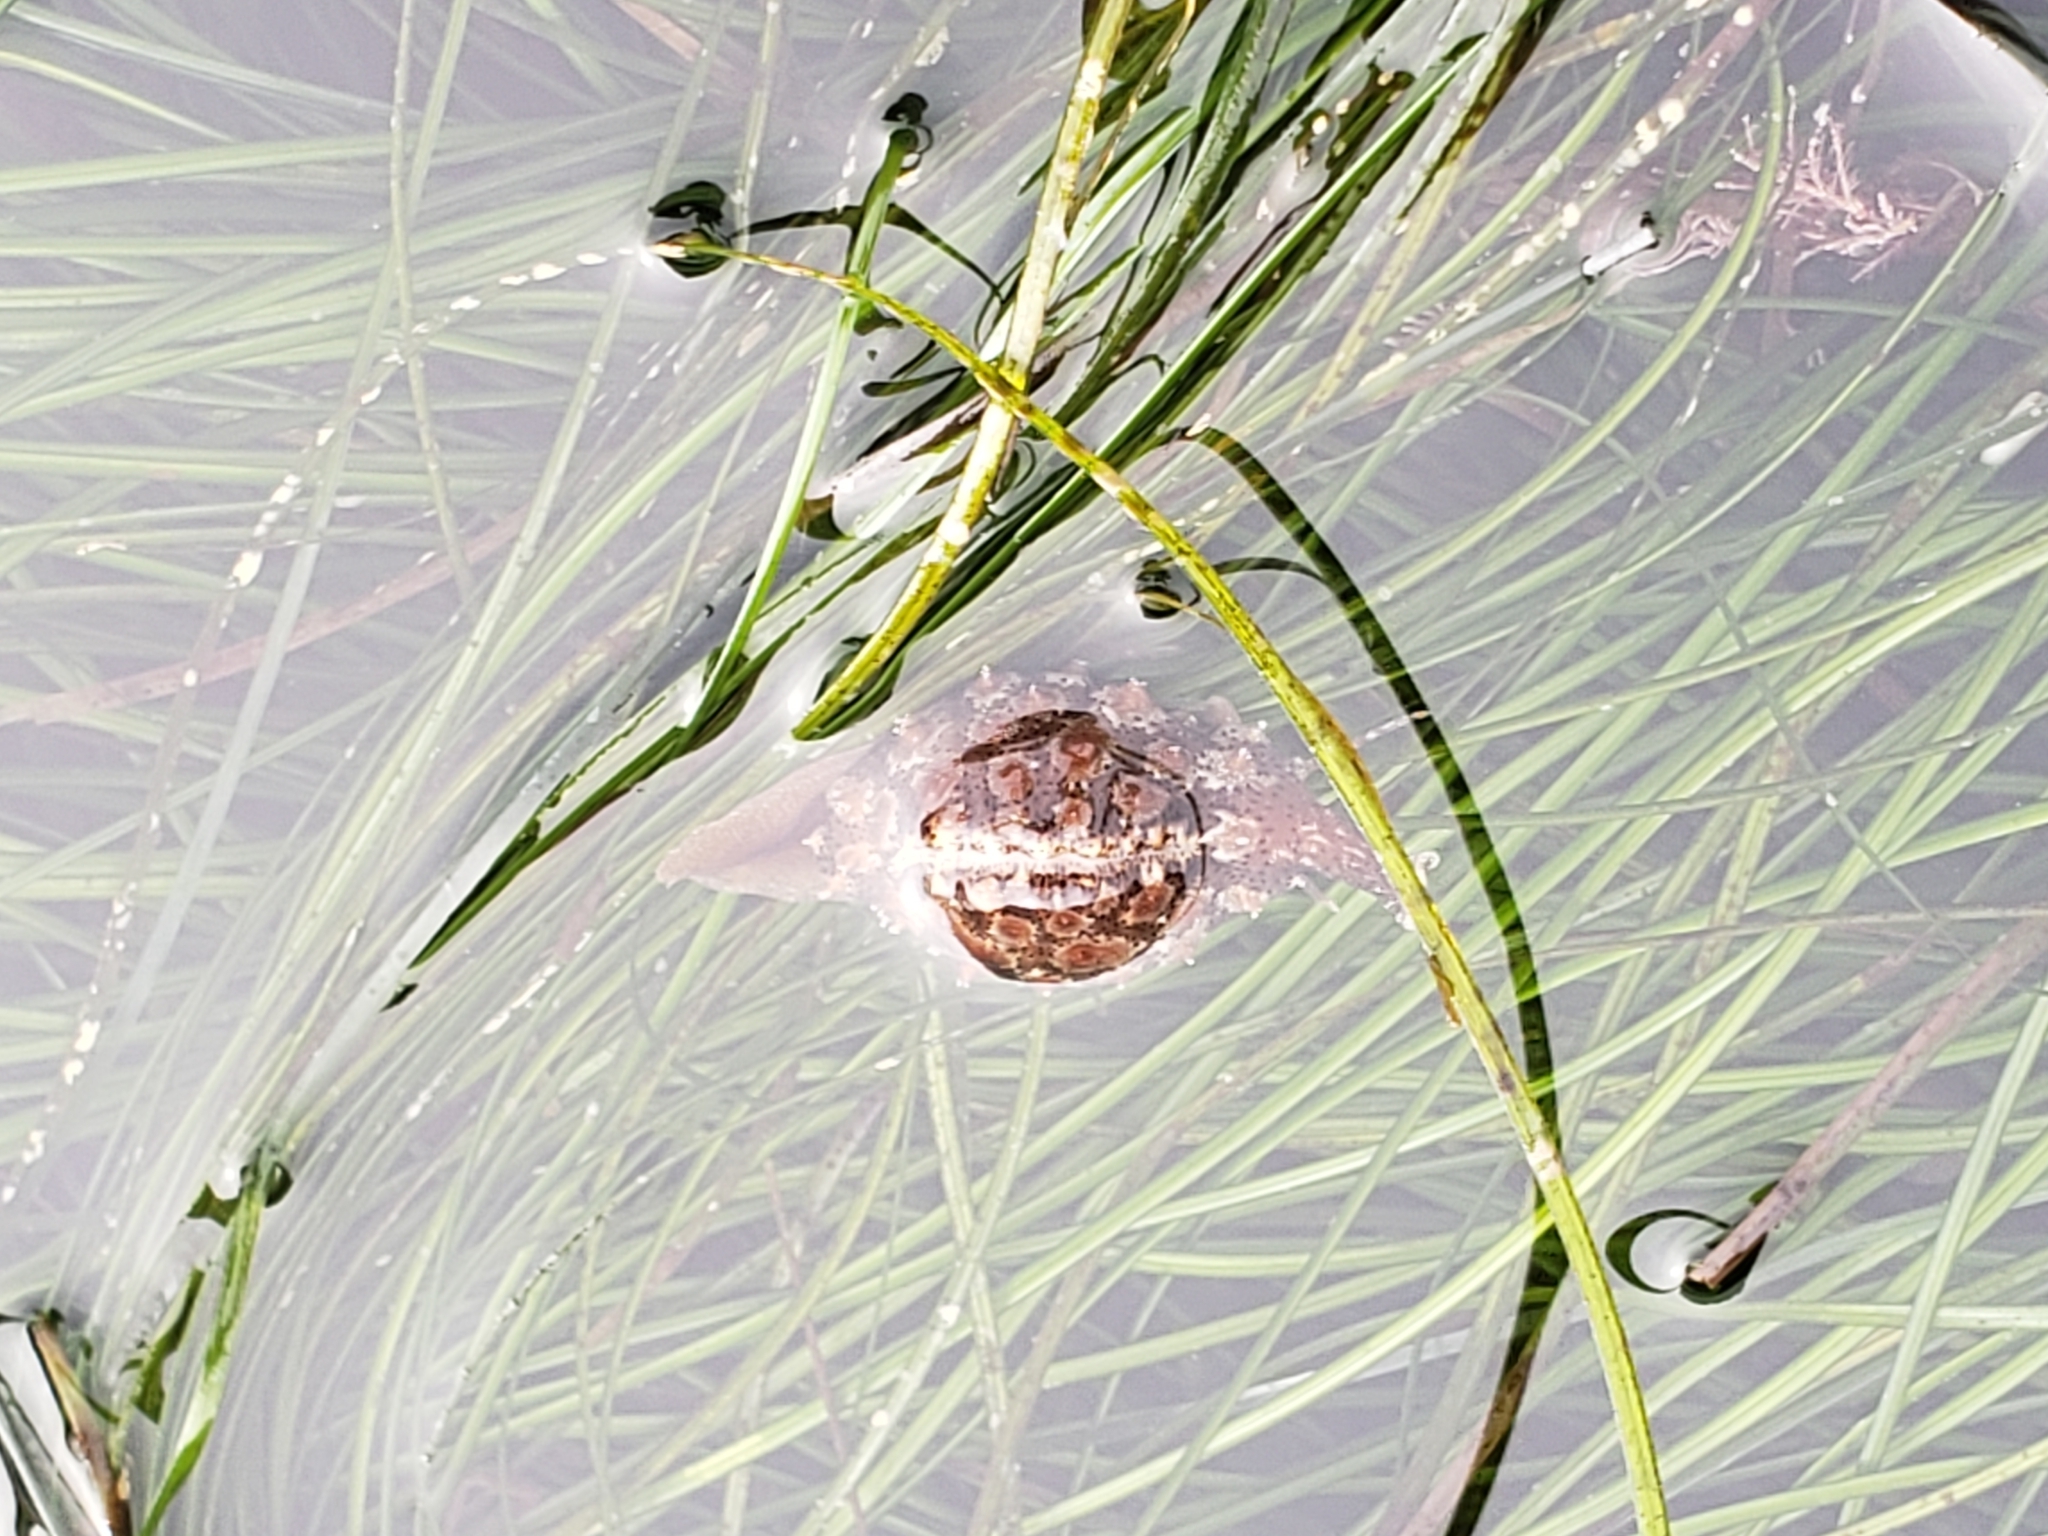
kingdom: Animalia
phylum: Mollusca
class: Gastropoda
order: Littorinimorpha
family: Triviidae
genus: Pusula
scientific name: Pusula solandri
